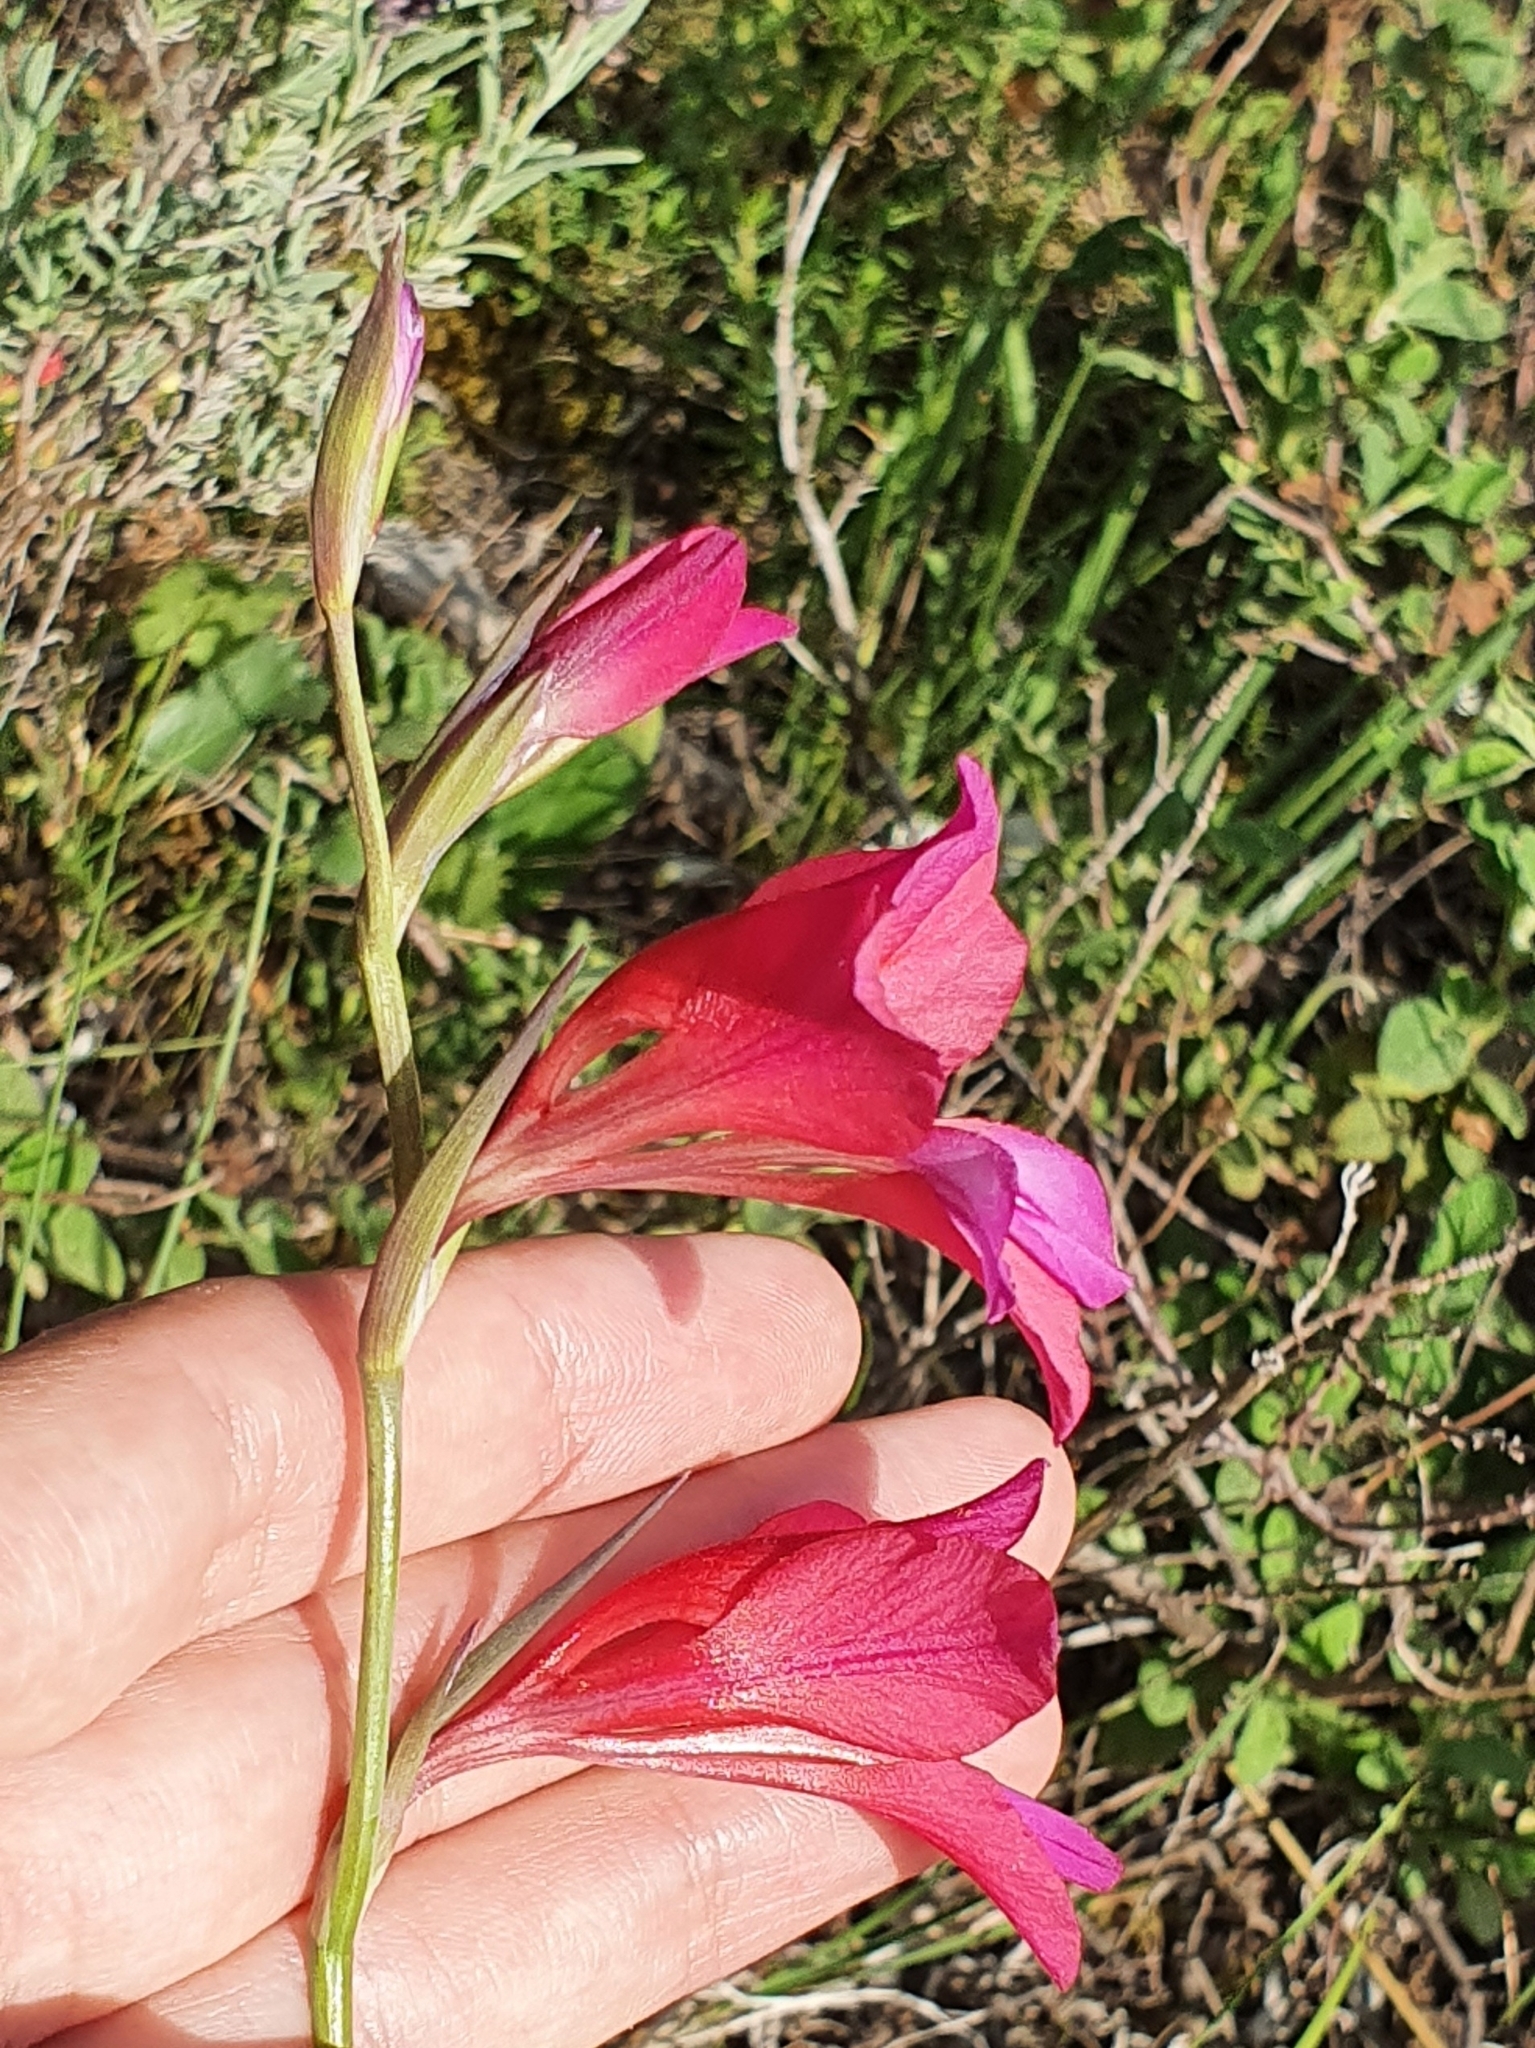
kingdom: Plantae
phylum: Tracheophyta
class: Liliopsida
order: Asparagales
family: Iridaceae
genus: Gladiolus
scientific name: Gladiolus dubius
